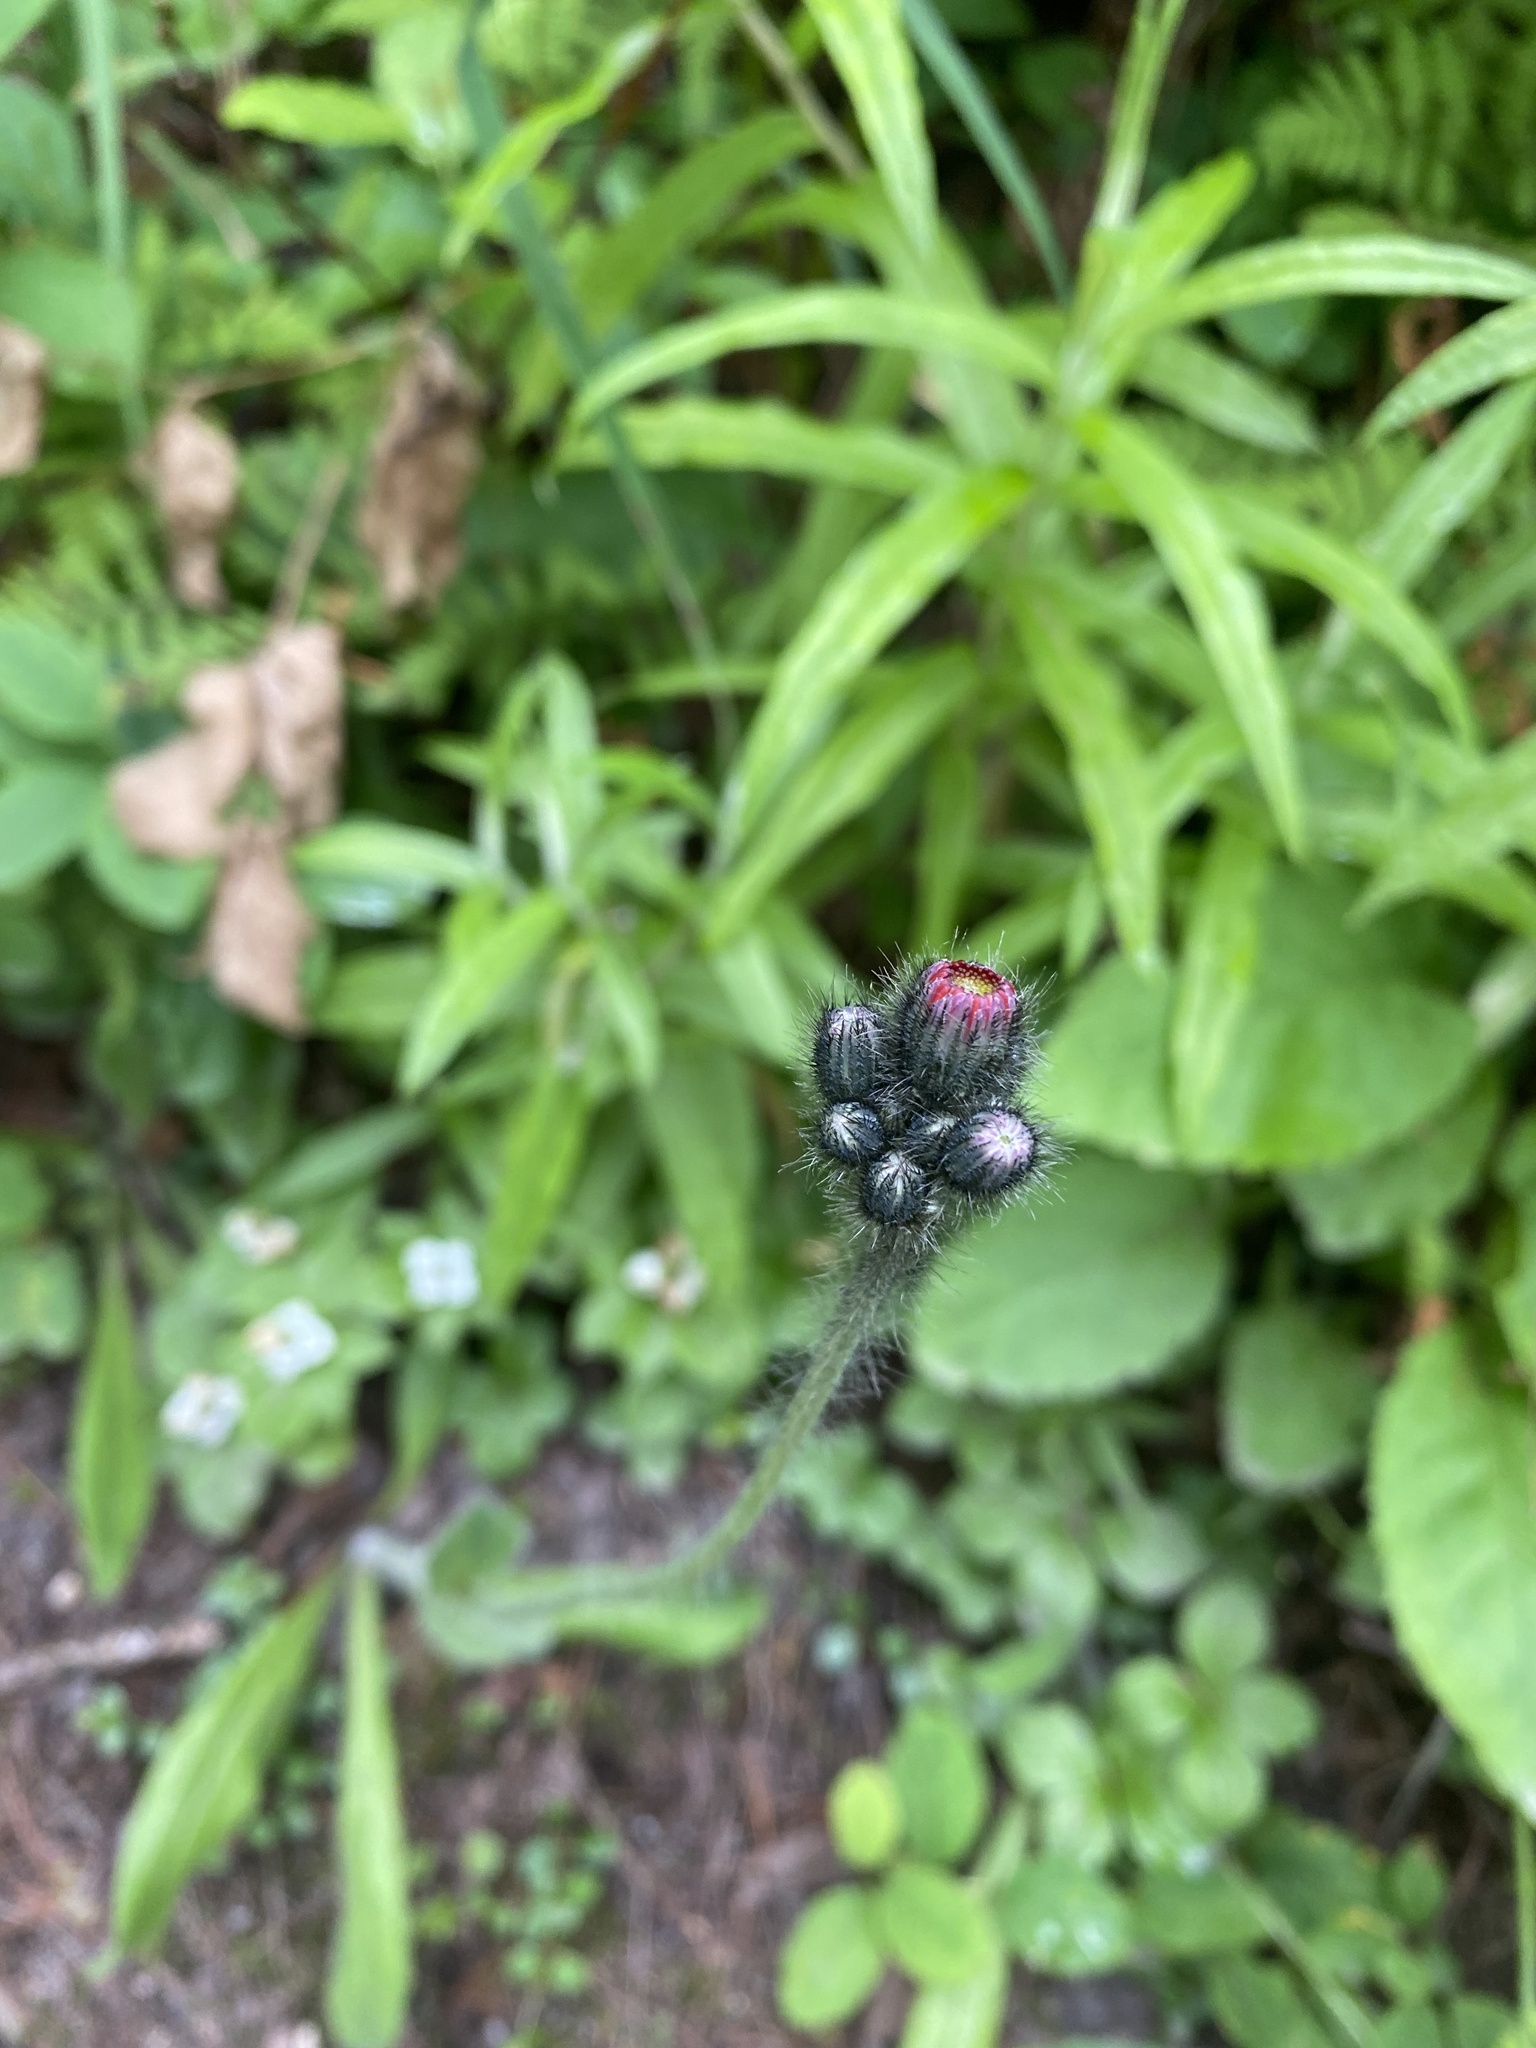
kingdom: Plantae
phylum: Tracheophyta
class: Magnoliopsida
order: Asterales
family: Asteraceae
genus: Pilosella
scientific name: Pilosella aurantiaca
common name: Fox-and-cubs
